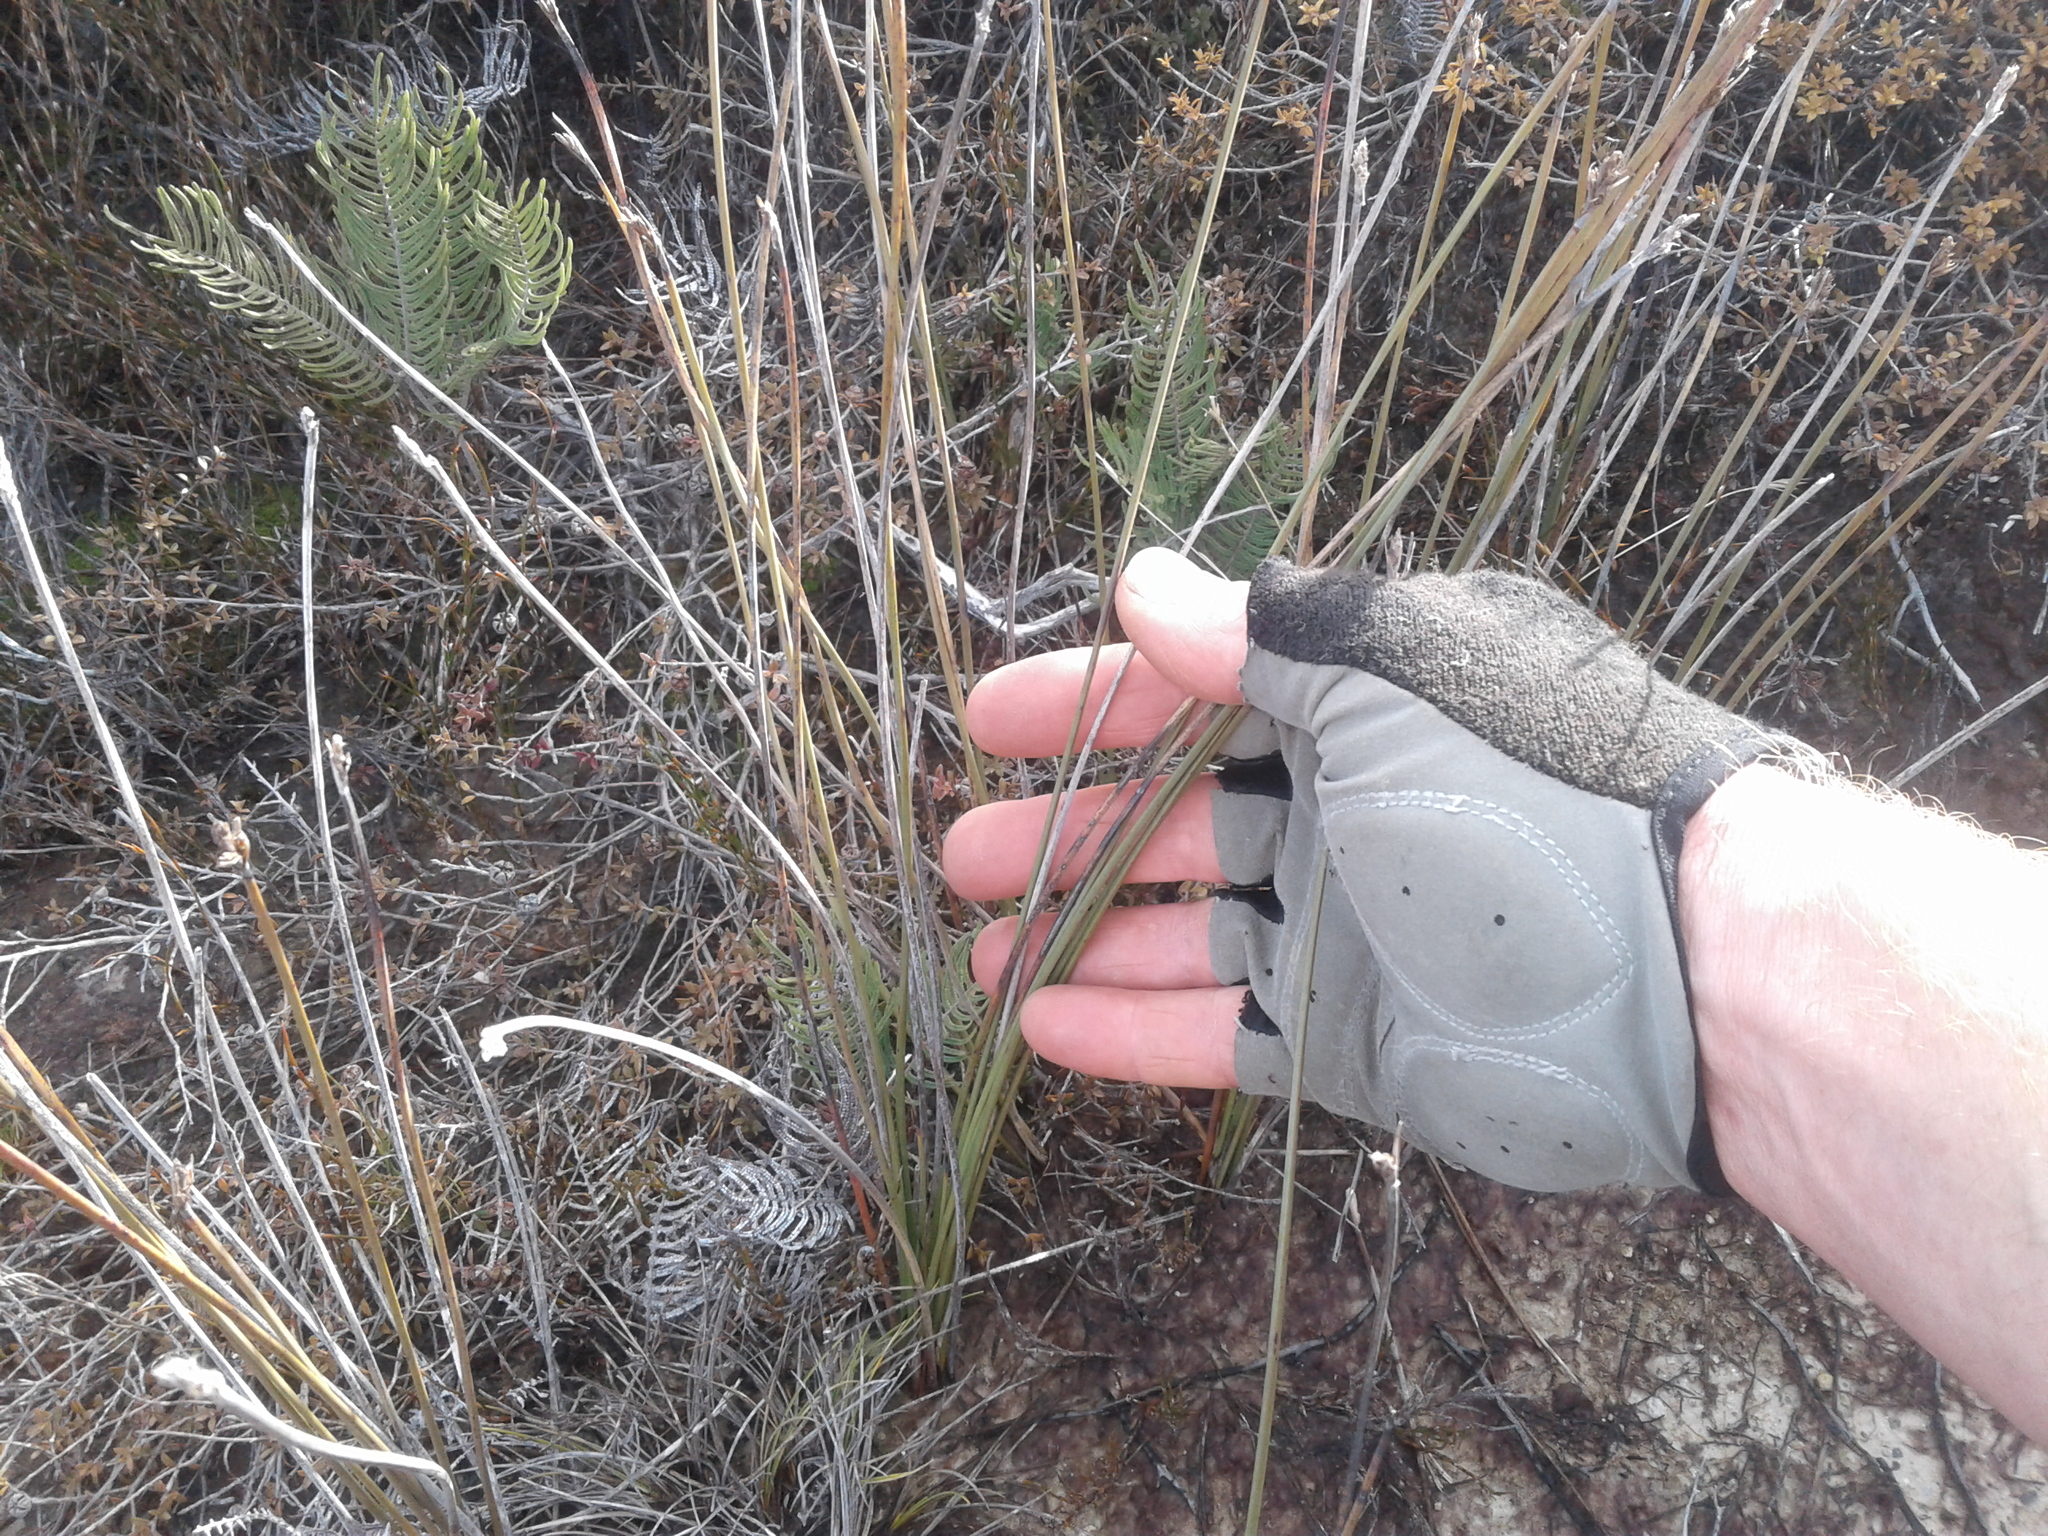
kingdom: Plantae
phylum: Tracheophyta
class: Liliopsida
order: Poales
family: Cyperaceae
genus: Lepidosperma
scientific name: Lepidosperma australe
